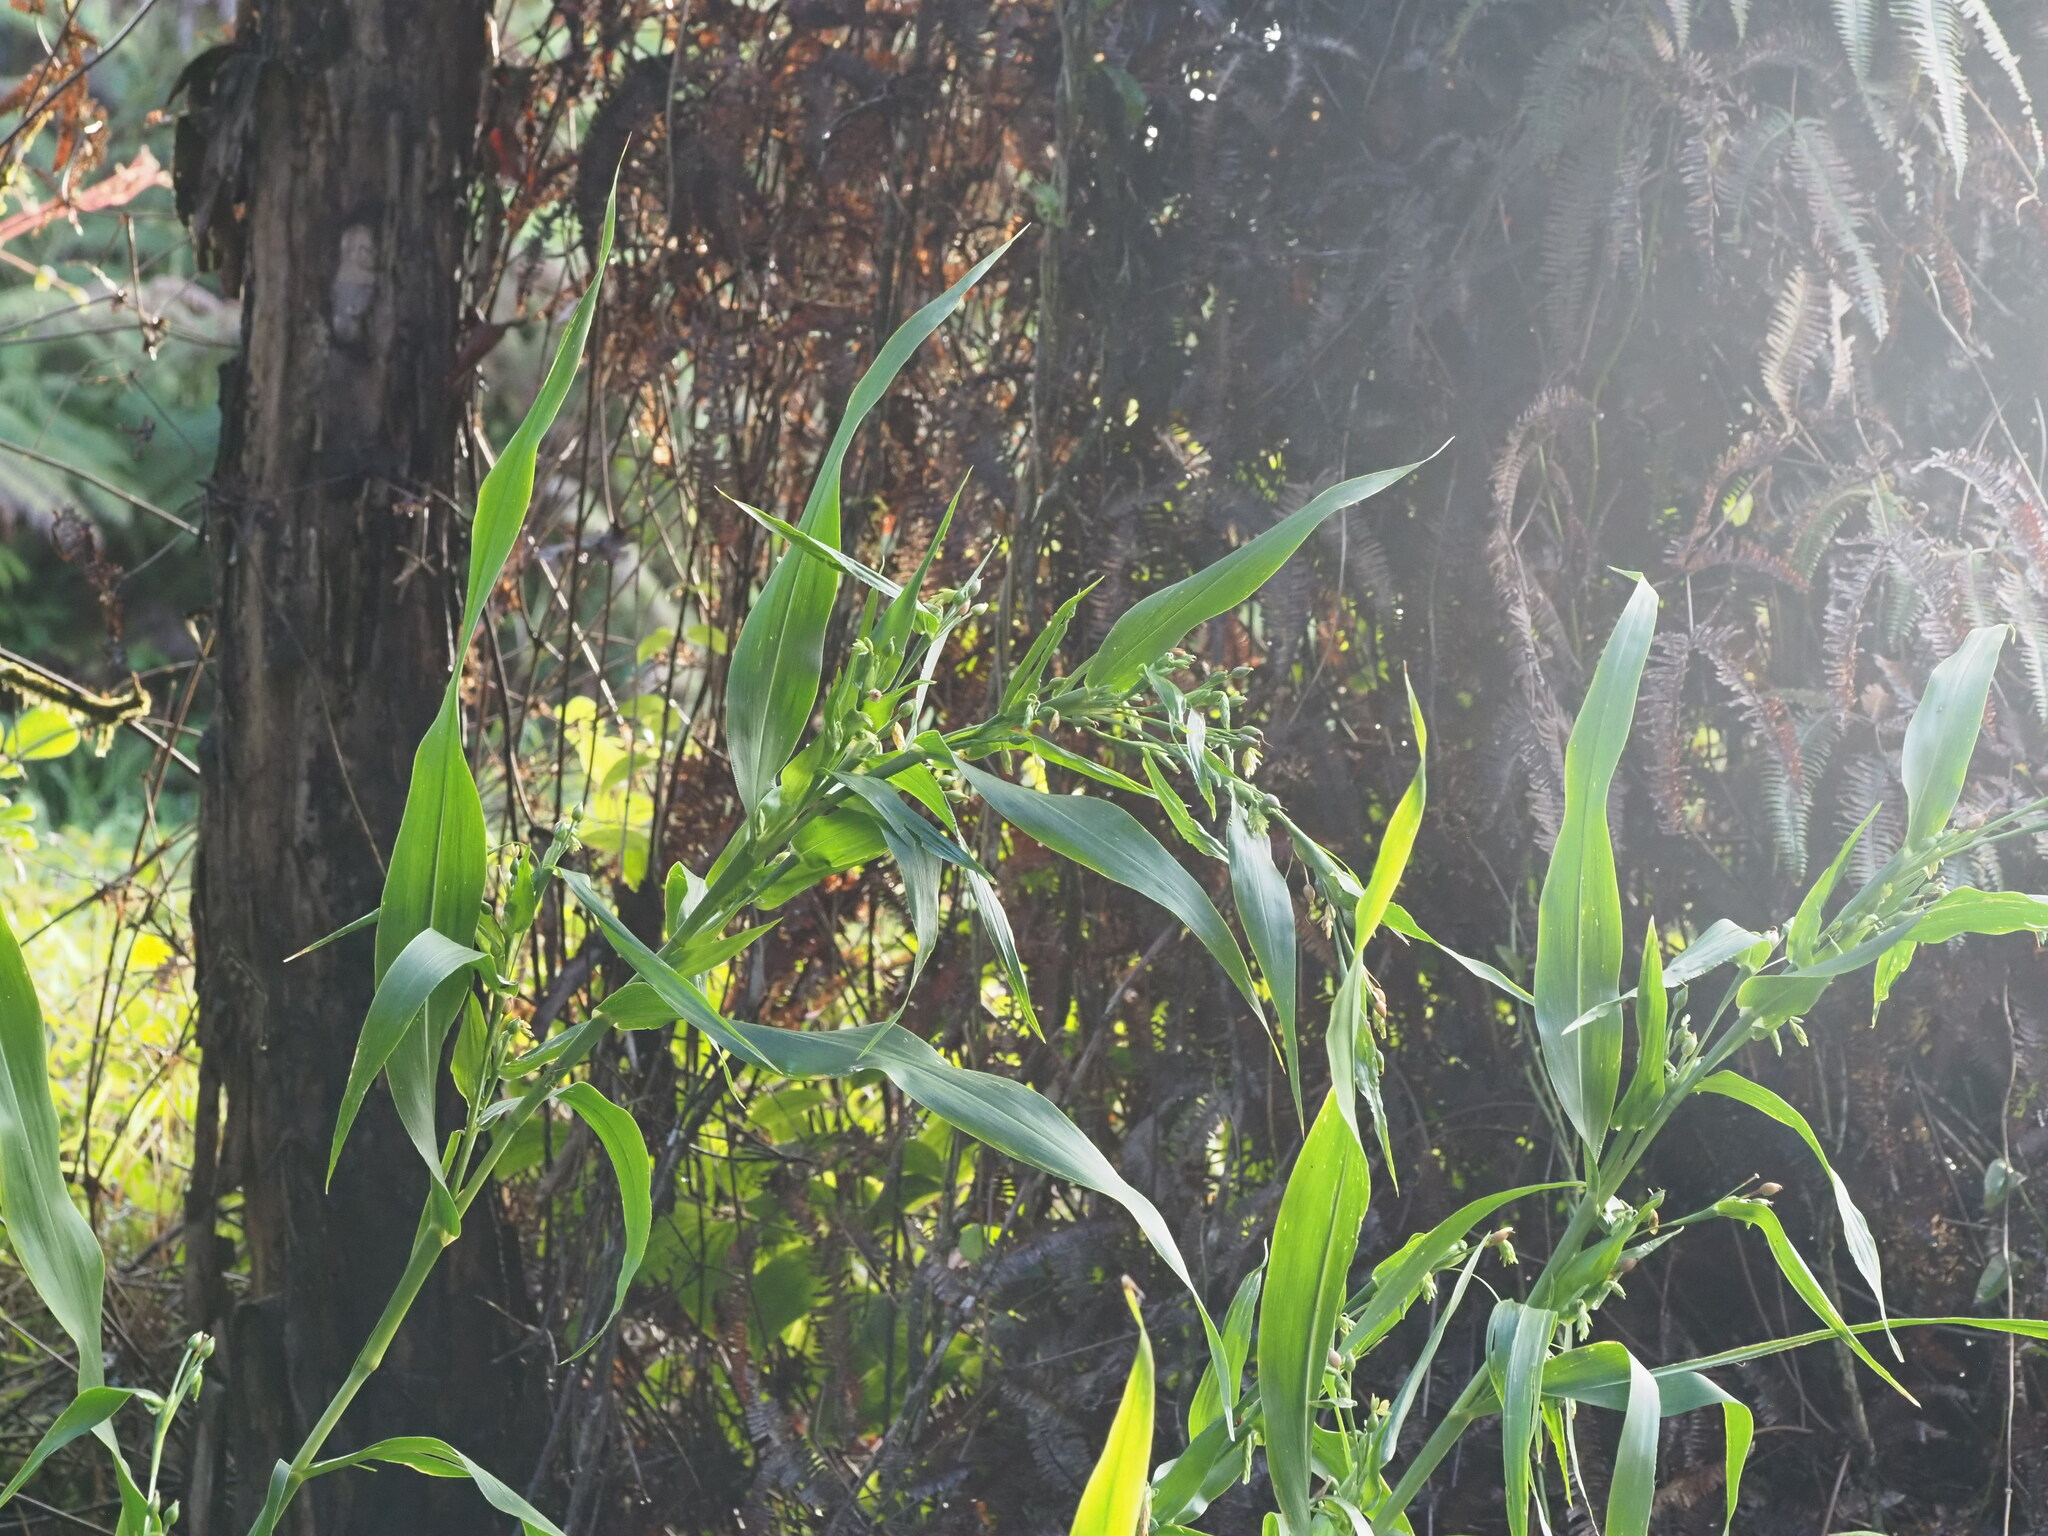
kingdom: Plantae
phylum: Tracheophyta
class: Liliopsida
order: Poales
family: Poaceae
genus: Coix
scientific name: Coix lacryma-jobi
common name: Job's tears
